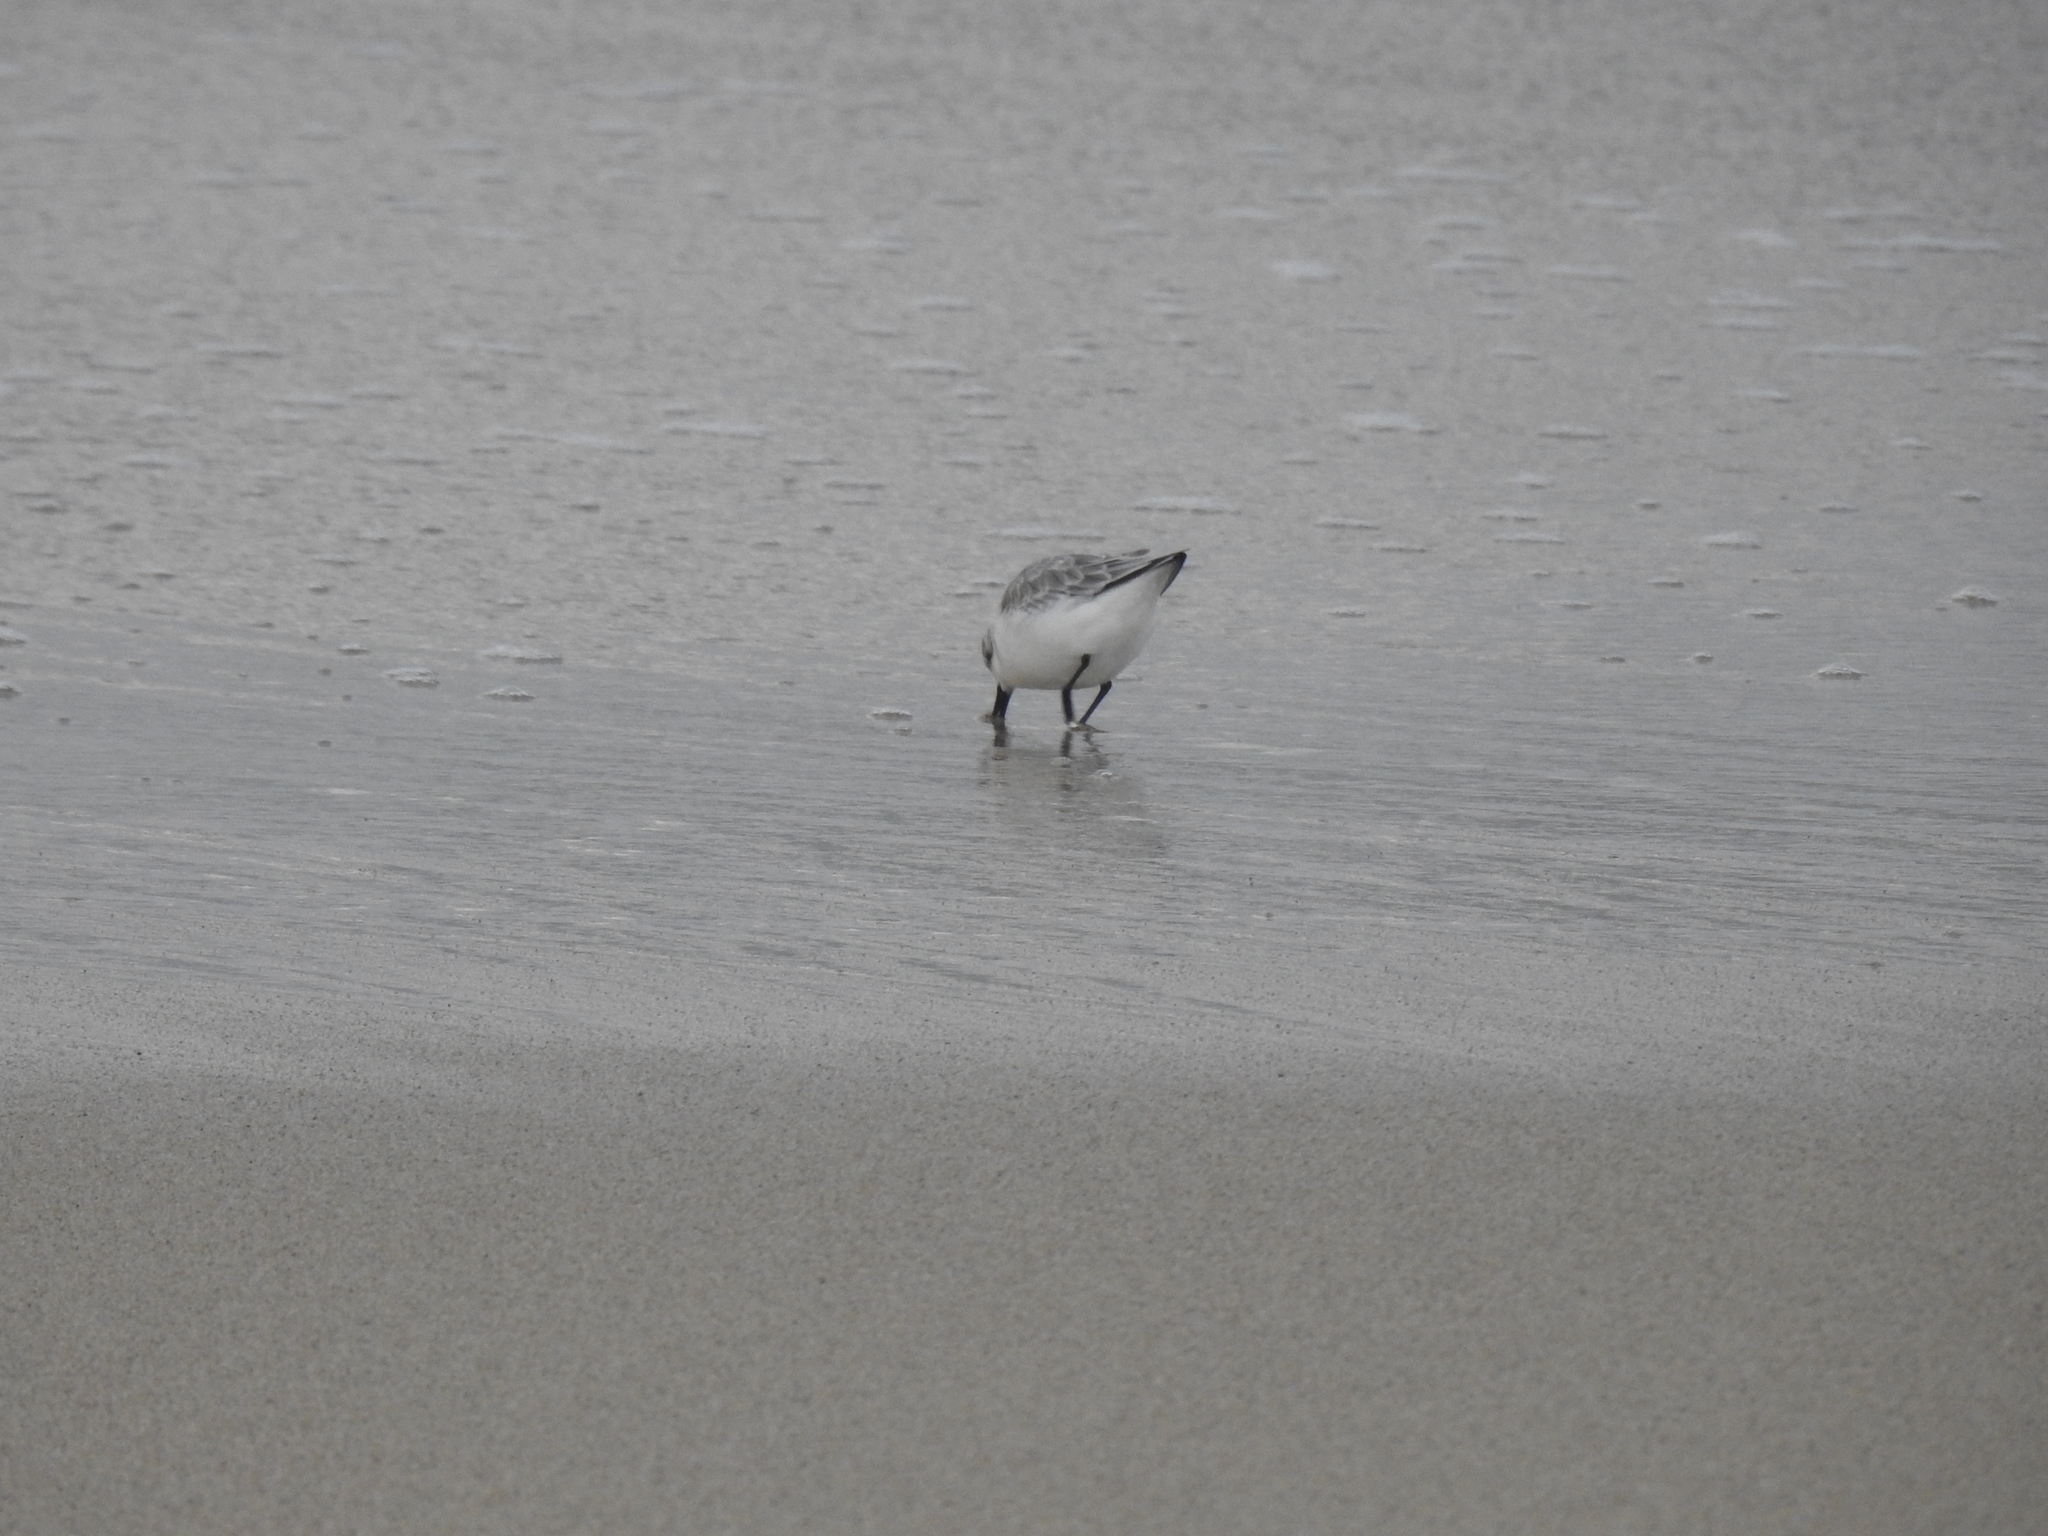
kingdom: Animalia
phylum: Chordata
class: Aves
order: Charadriiformes
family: Scolopacidae
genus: Calidris
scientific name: Calidris alba
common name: Sanderling
